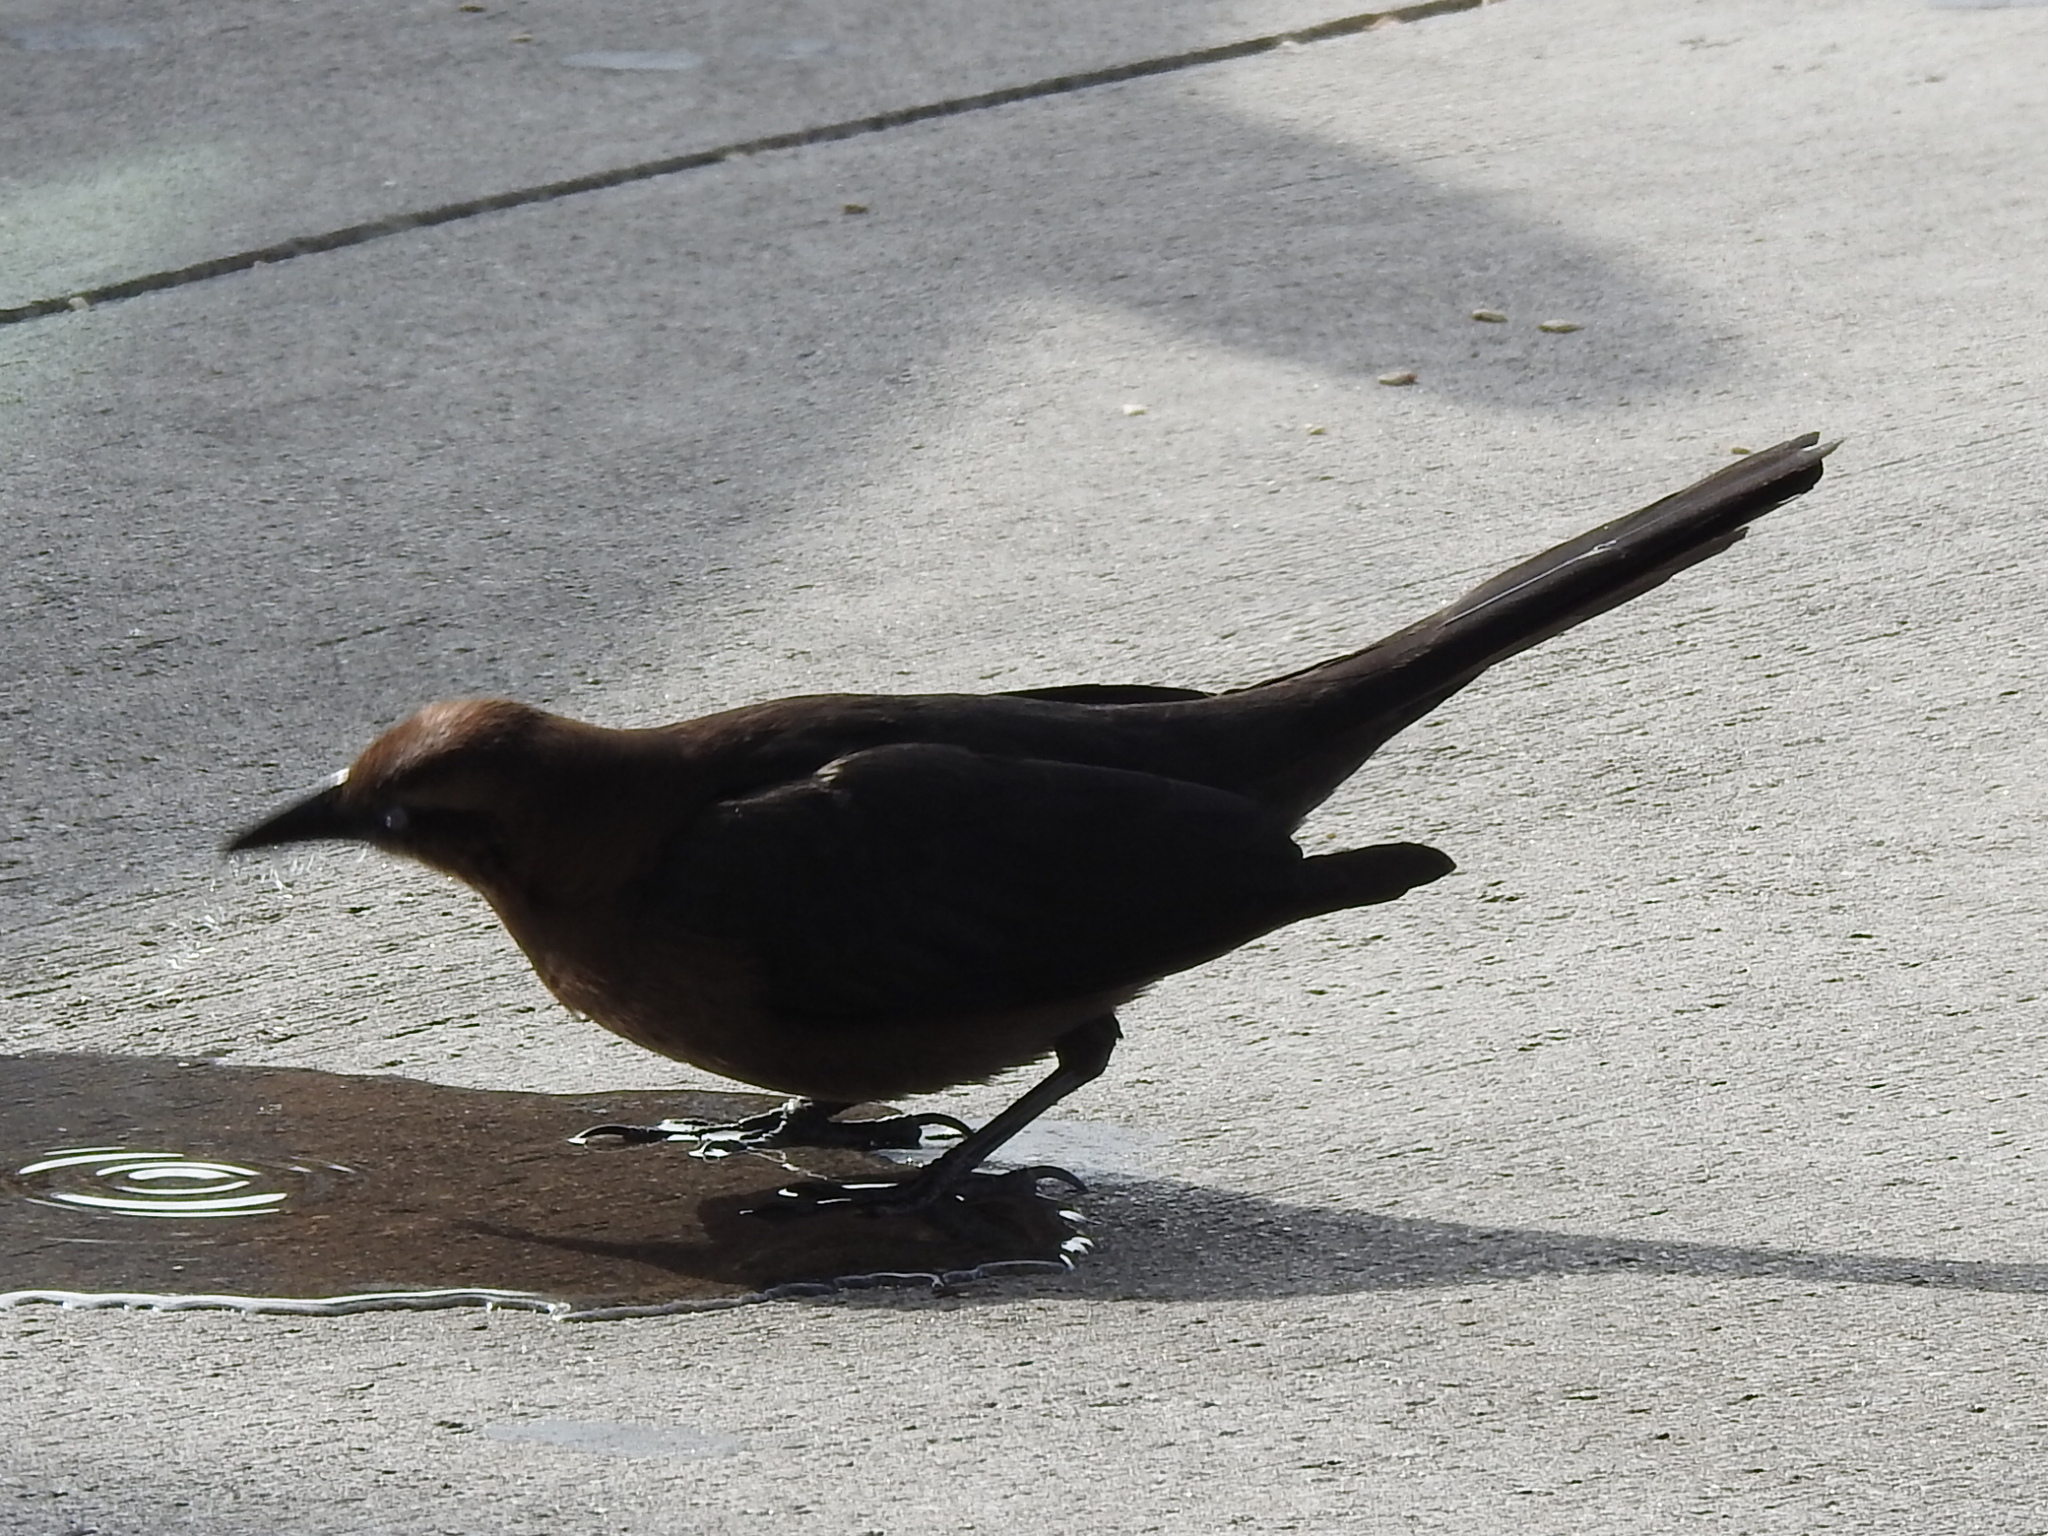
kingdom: Animalia
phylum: Chordata
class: Aves
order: Passeriformes
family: Icteridae
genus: Quiscalus
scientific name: Quiscalus mexicanus
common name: Great-tailed grackle
